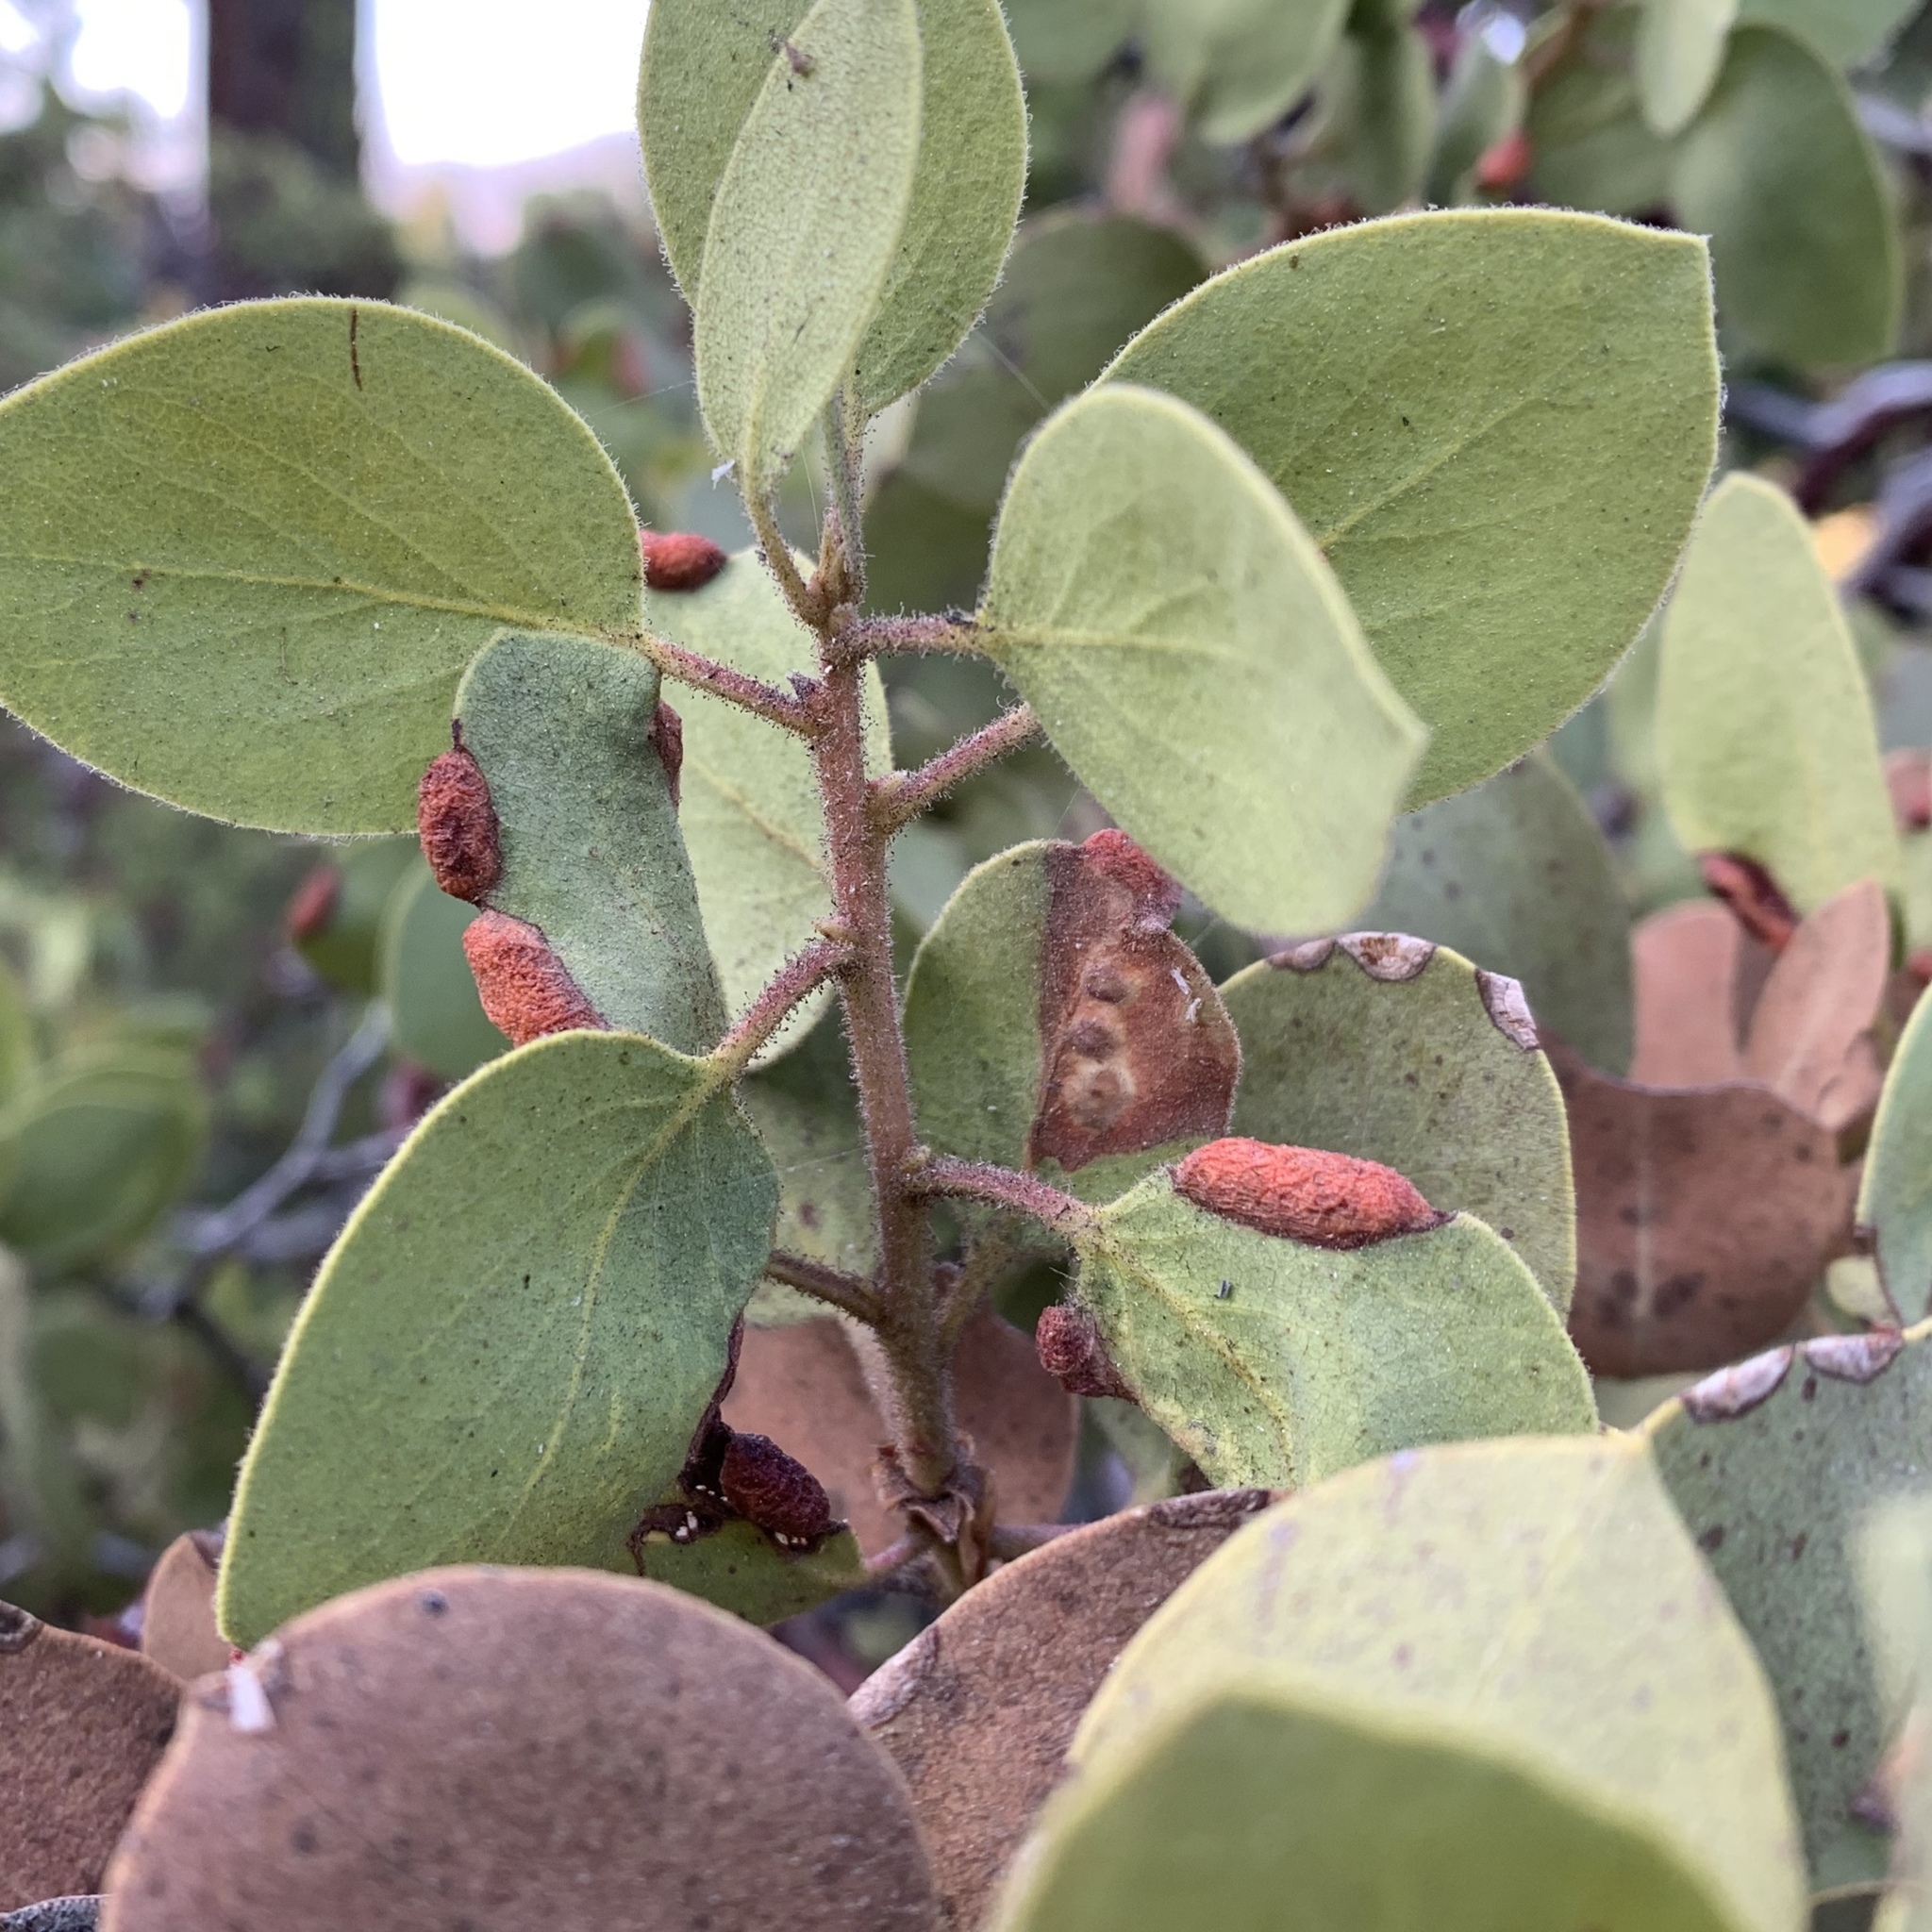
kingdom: Animalia
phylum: Arthropoda
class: Insecta
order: Hemiptera
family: Aphididae
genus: Tamalia
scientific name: Tamalia coweni
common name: Manzanita leafgall aphid
